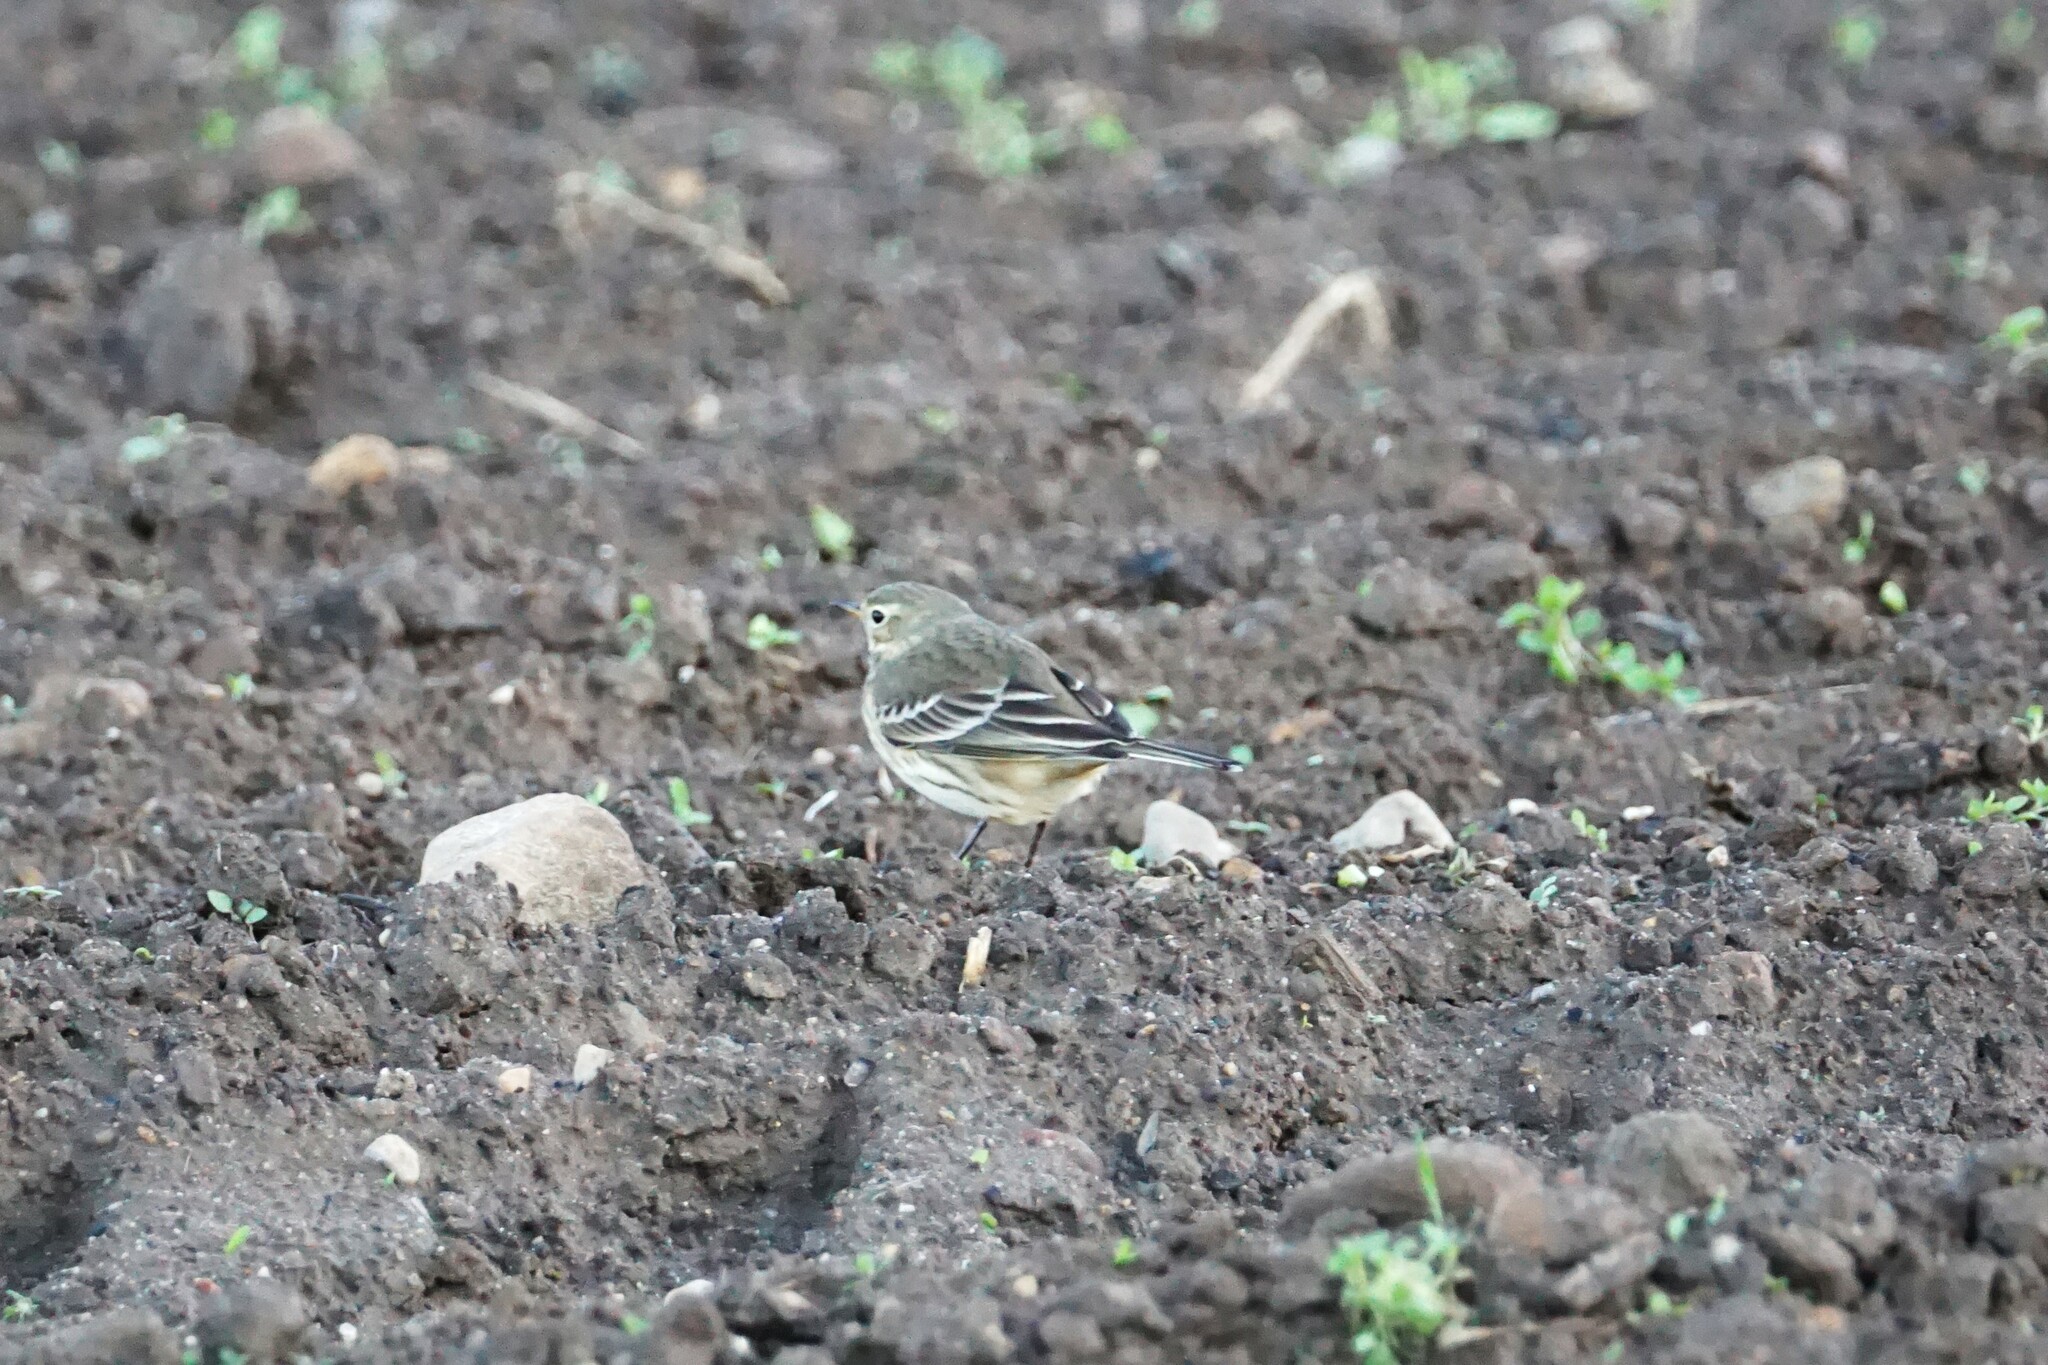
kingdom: Animalia
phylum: Chordata
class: Aves
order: Passeriformes
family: Motacillidae
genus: Anthus
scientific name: Anthus rubescens
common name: Buff-bellied pipit
